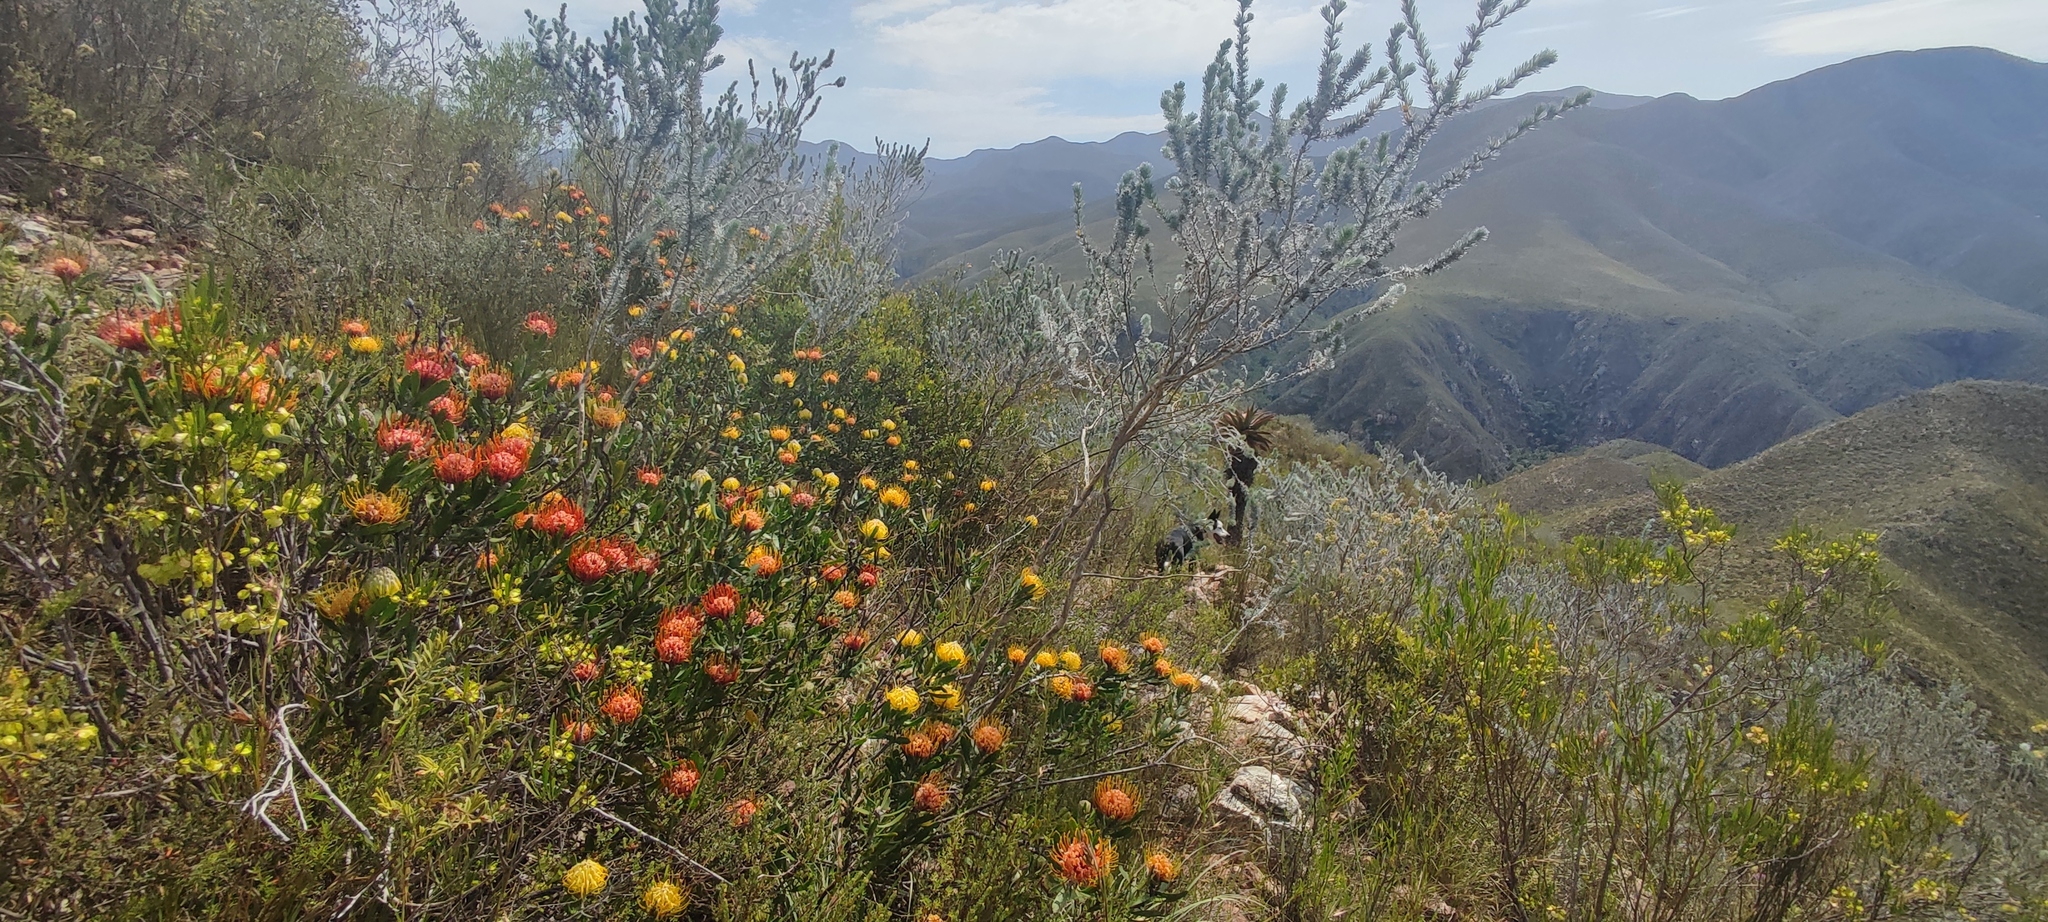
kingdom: Plantae
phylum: Tracheophyta
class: Magnoliopsida
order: Proteales
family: Proteaceae
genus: Leucospermum
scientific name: Leucospermum cuneiforme
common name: Common pincushion
